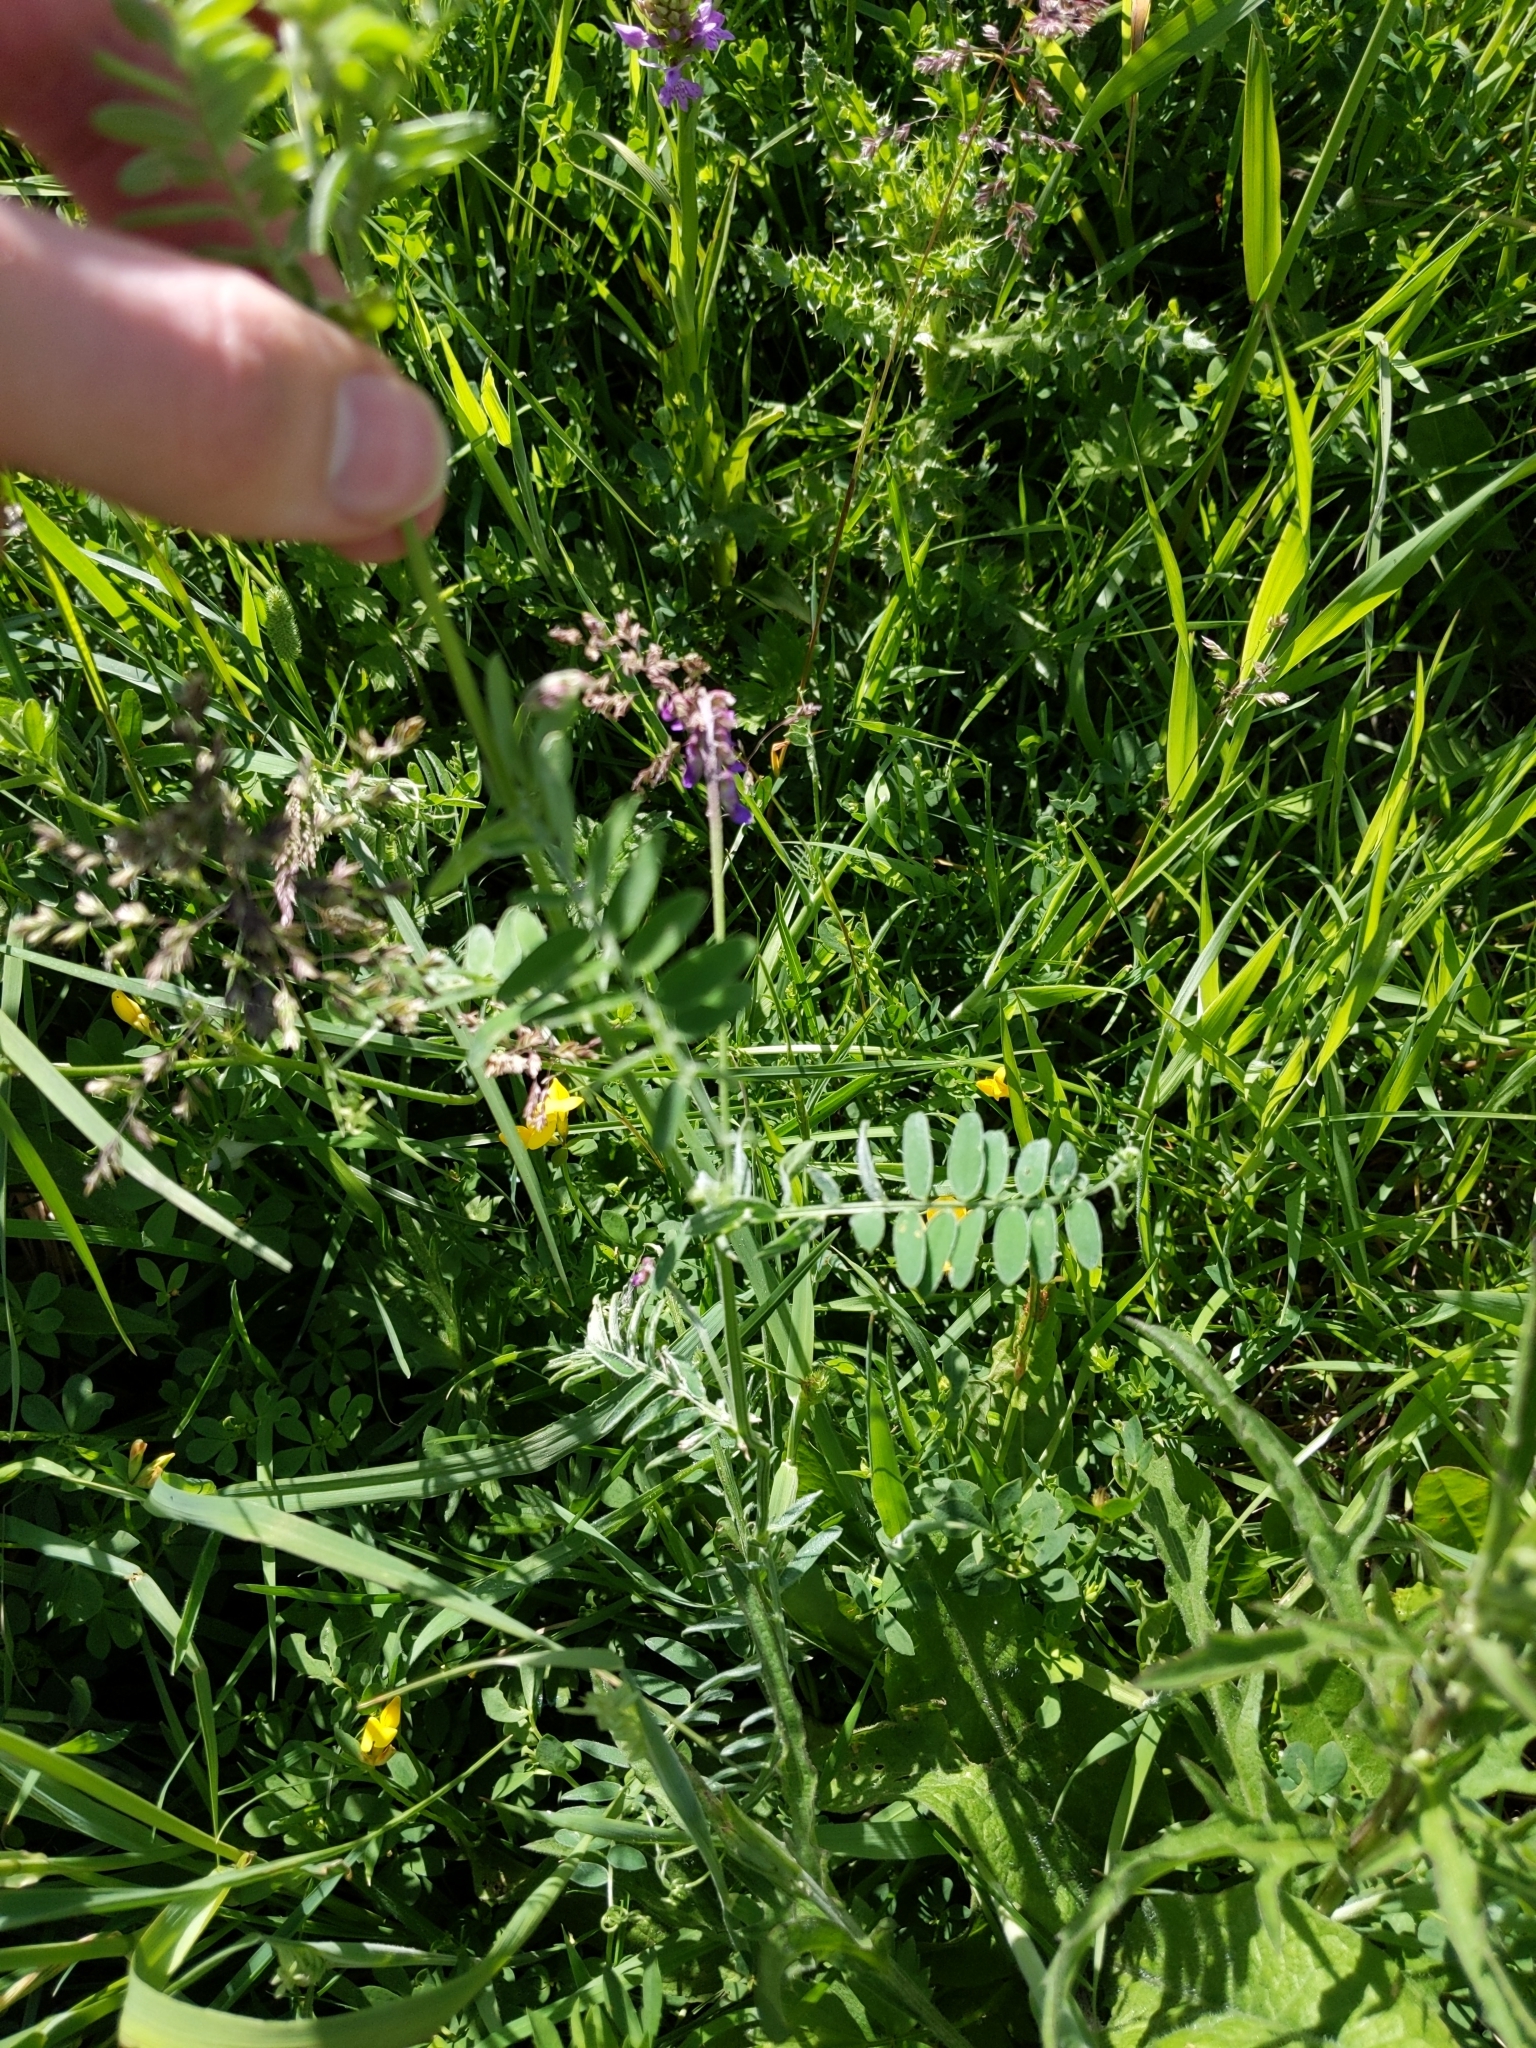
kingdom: Plantae
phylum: Tracheophyta
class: Magnoliopsida
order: Fabales
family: Fabaceae
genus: Vicia
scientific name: Vicia cracca
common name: Bird vetch
